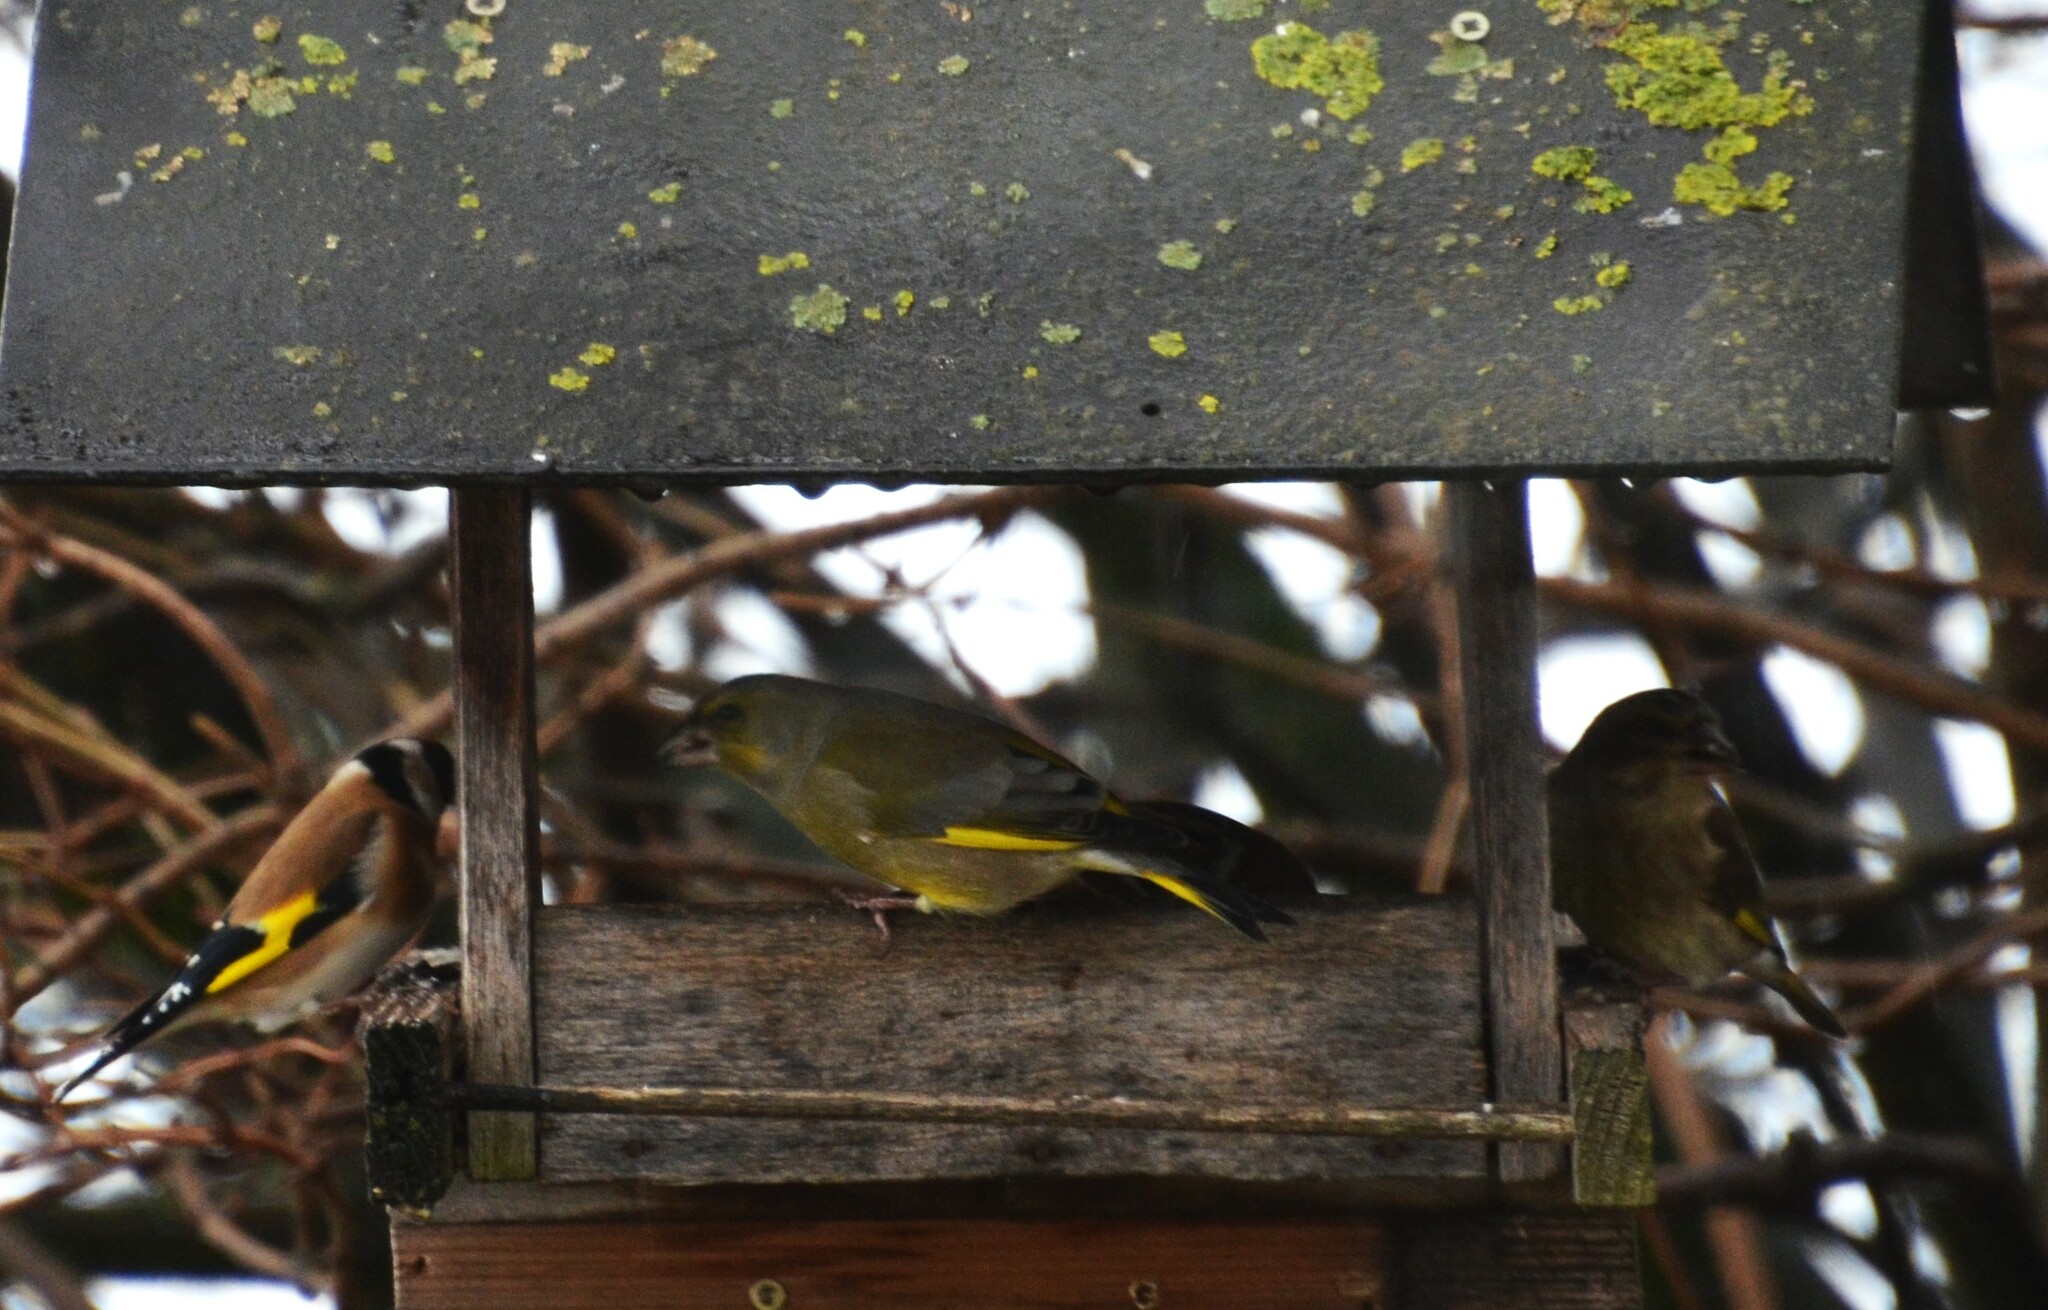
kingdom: Plantae
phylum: Tracheophyta
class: Liliopsida
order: Poales
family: Poaceae
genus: Chloris
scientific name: Chloris chloris
